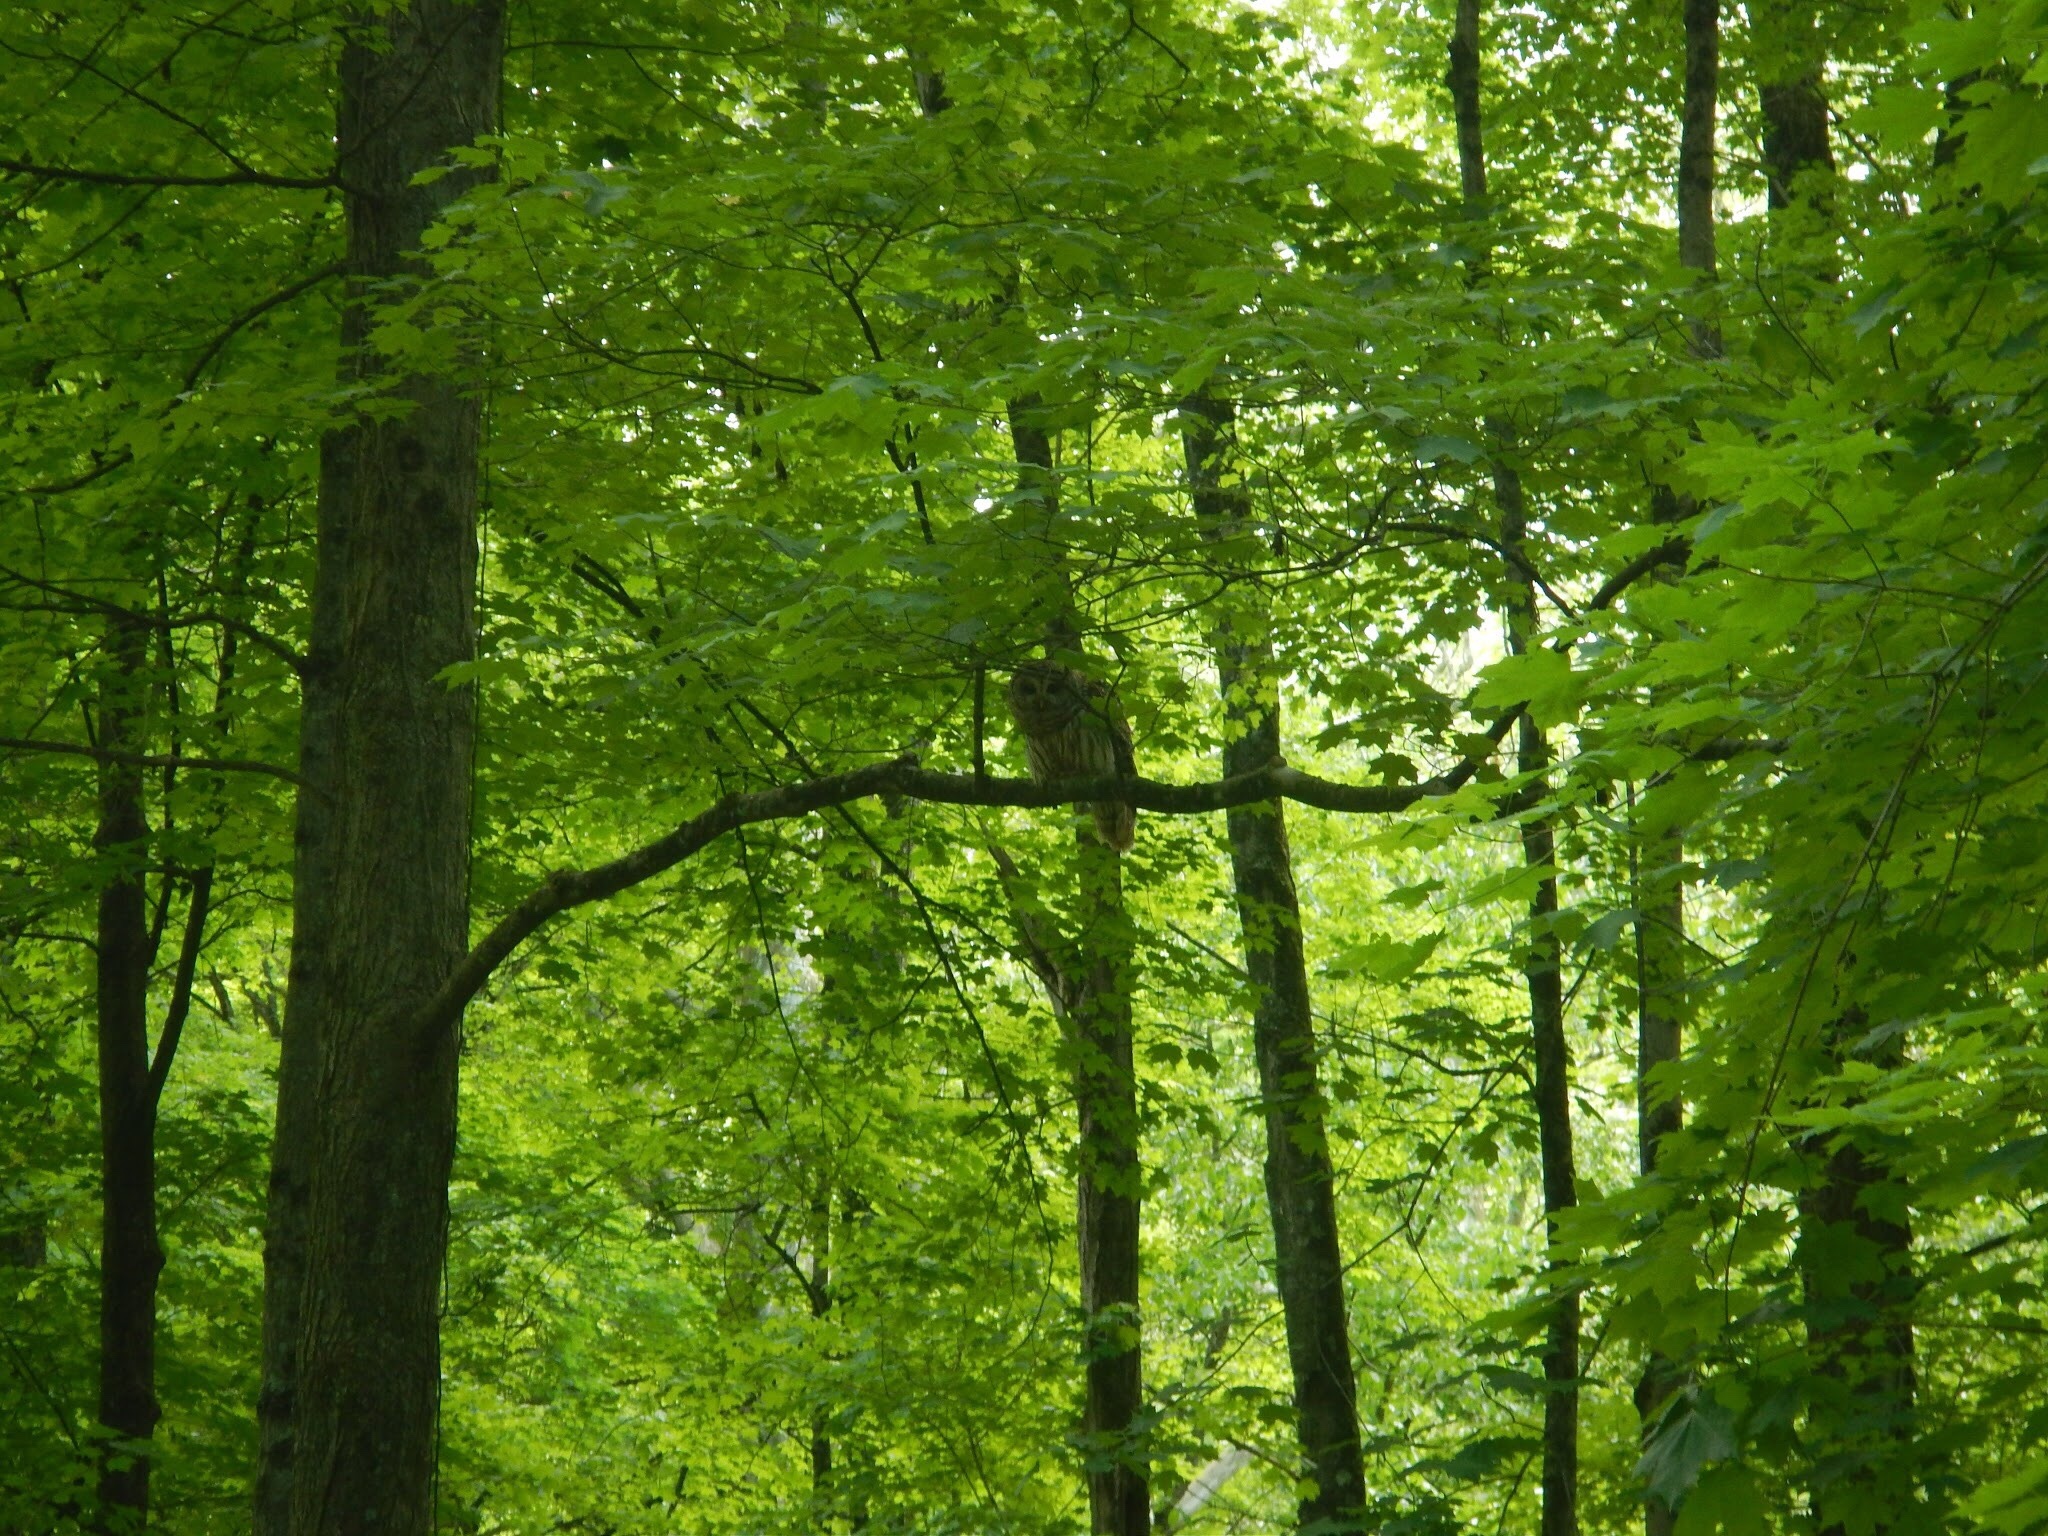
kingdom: Animalia
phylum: Chordata
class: Aves
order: Strigiformes
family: Strigidae
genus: Strix
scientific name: Strix varia
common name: Barred owl
